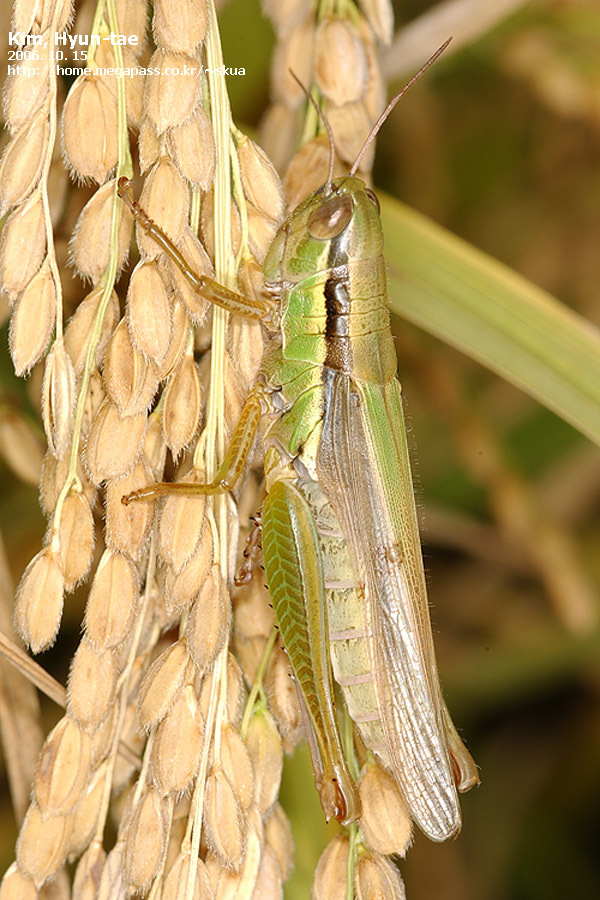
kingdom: Animalia
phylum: Arthropoda
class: Insecta
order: Orthoptera
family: Acrididae
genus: Oxya
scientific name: Oxya chinensis
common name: Small rice grasshopper
